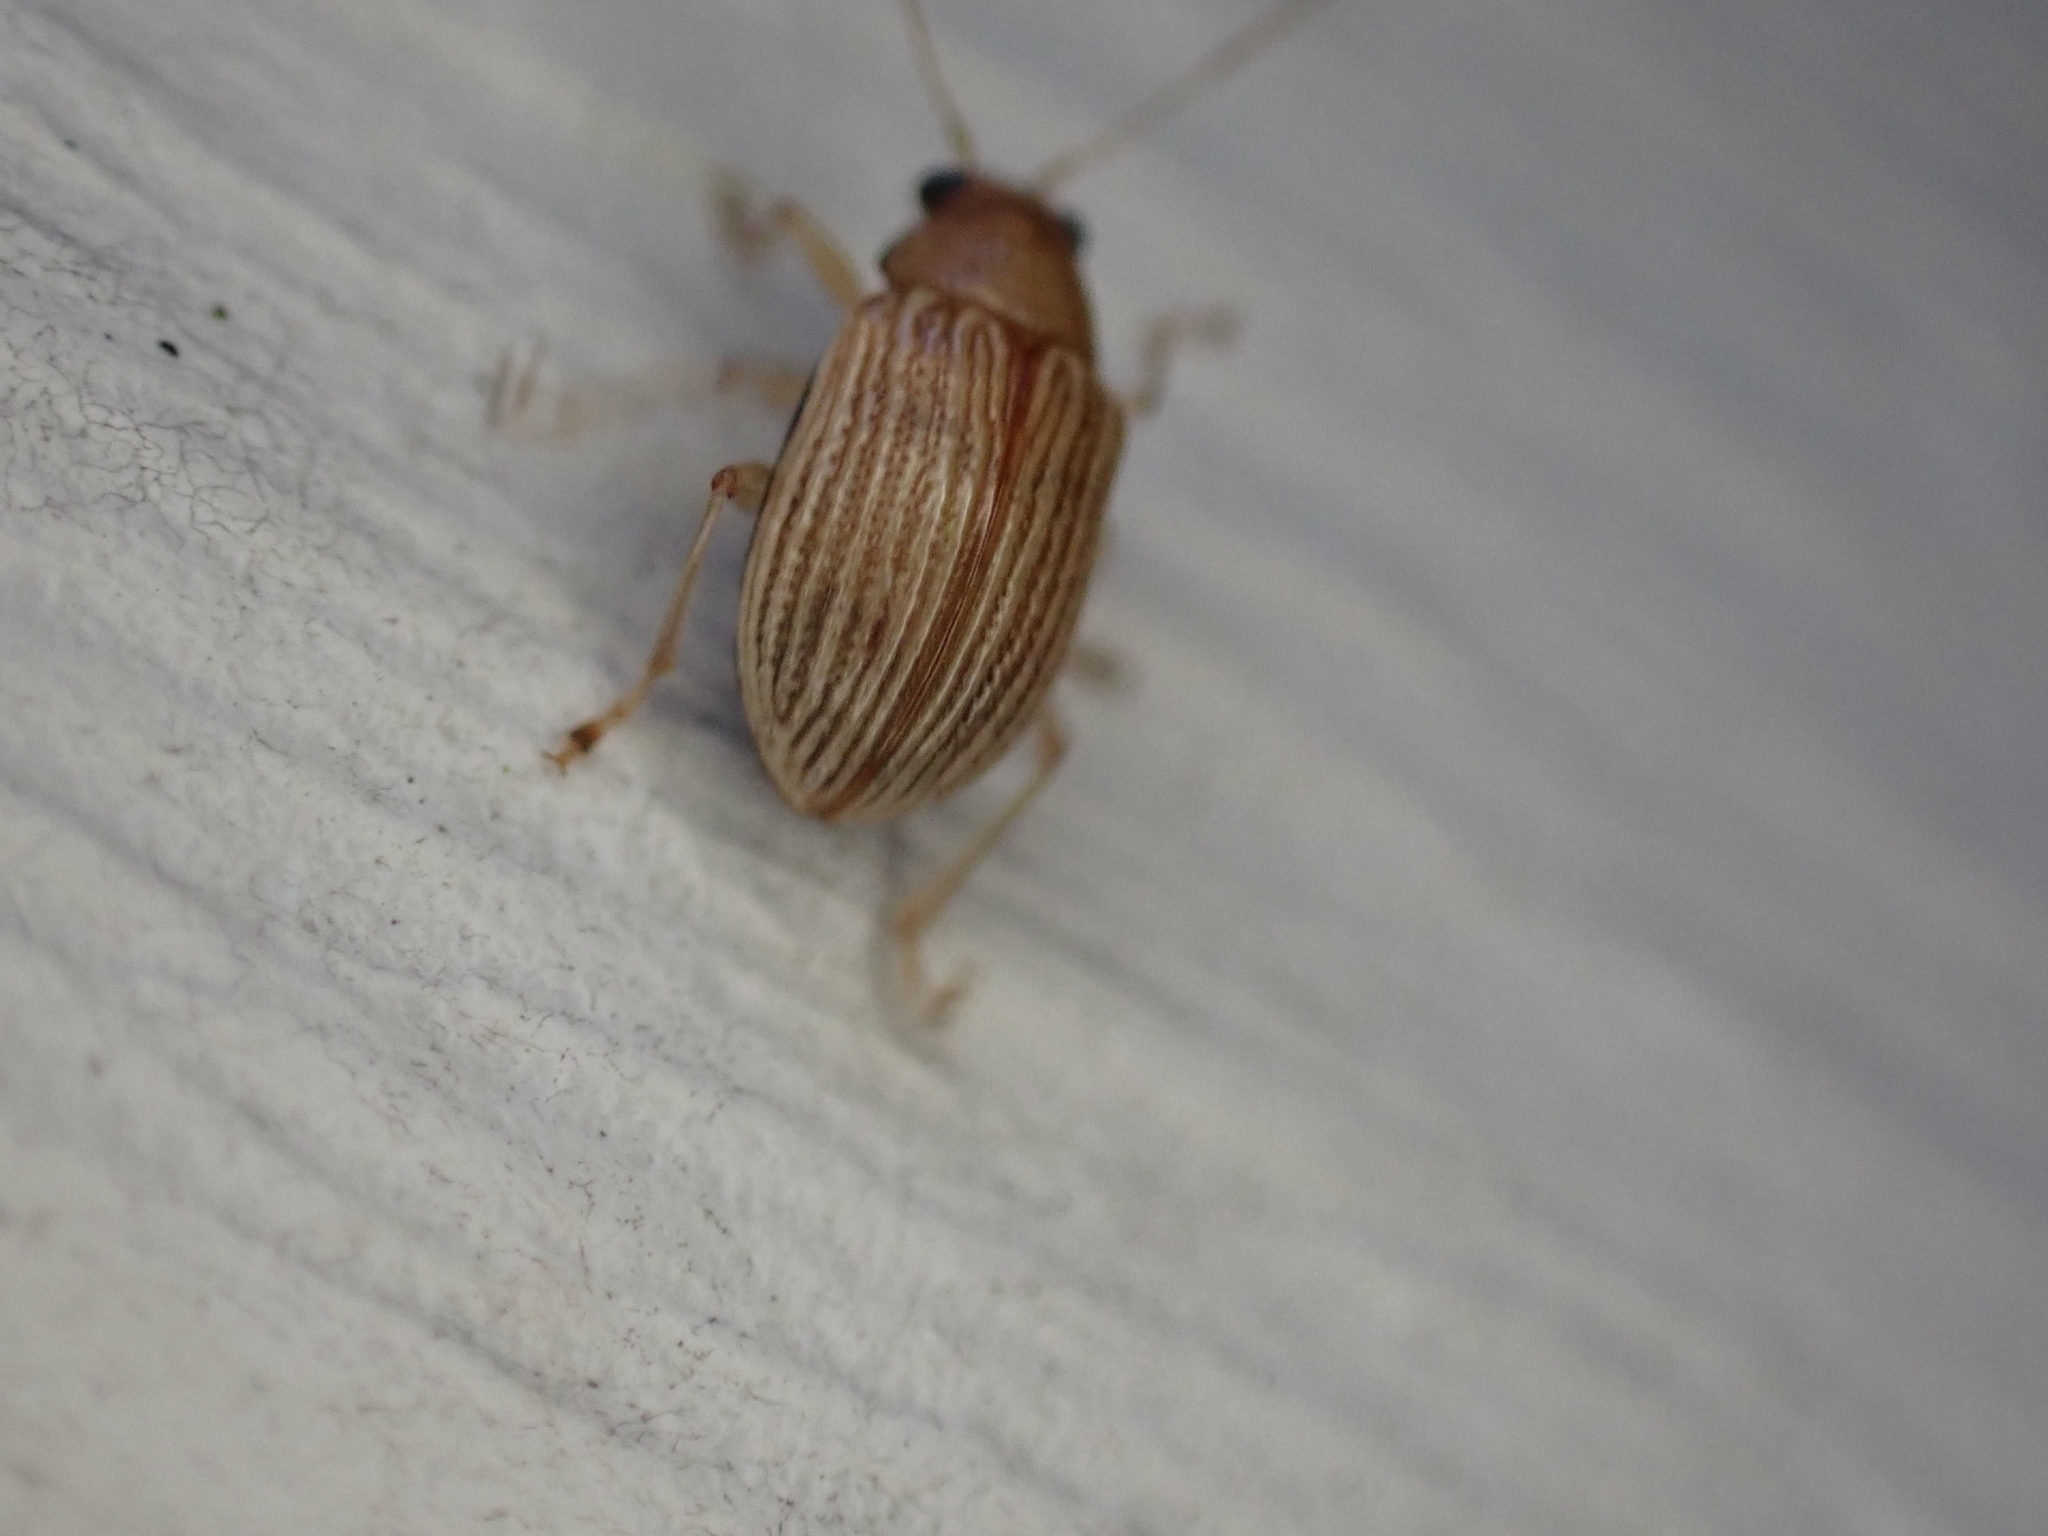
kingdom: Animalia
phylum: Arthropoda
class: Insecta
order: Coleoptera
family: Chrysomelidae
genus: Colaspis
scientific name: Colaspis brunnea
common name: Grape colaspis
